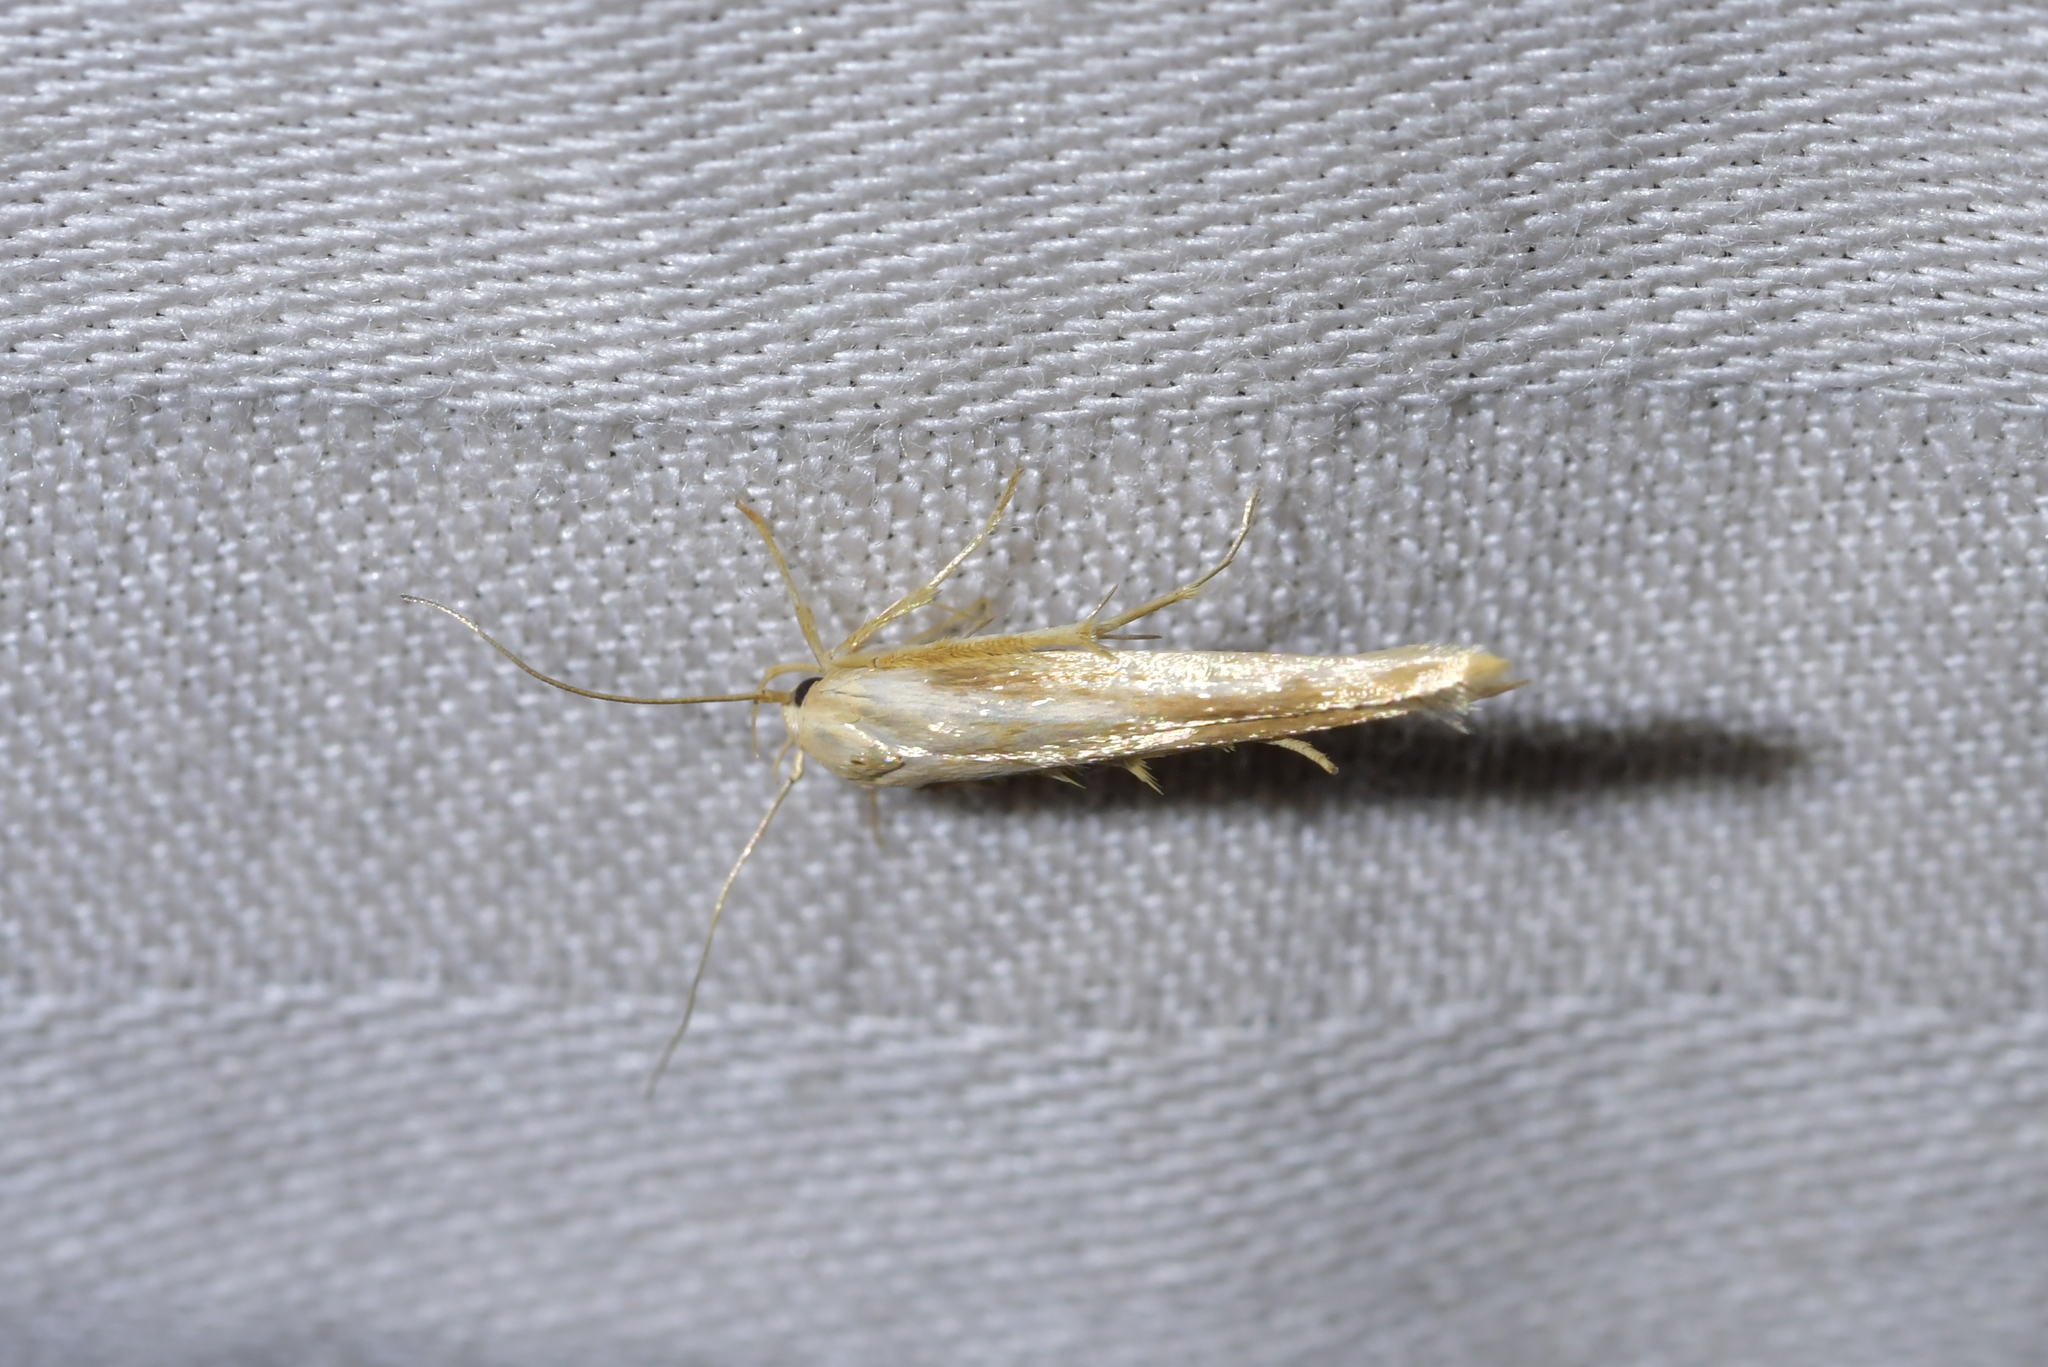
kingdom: Animalia
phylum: Arthropoda
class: Insecta
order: Lepidoptera
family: Stathmopodidae
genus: Stathmopoda
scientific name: Stathmopoda aposema
